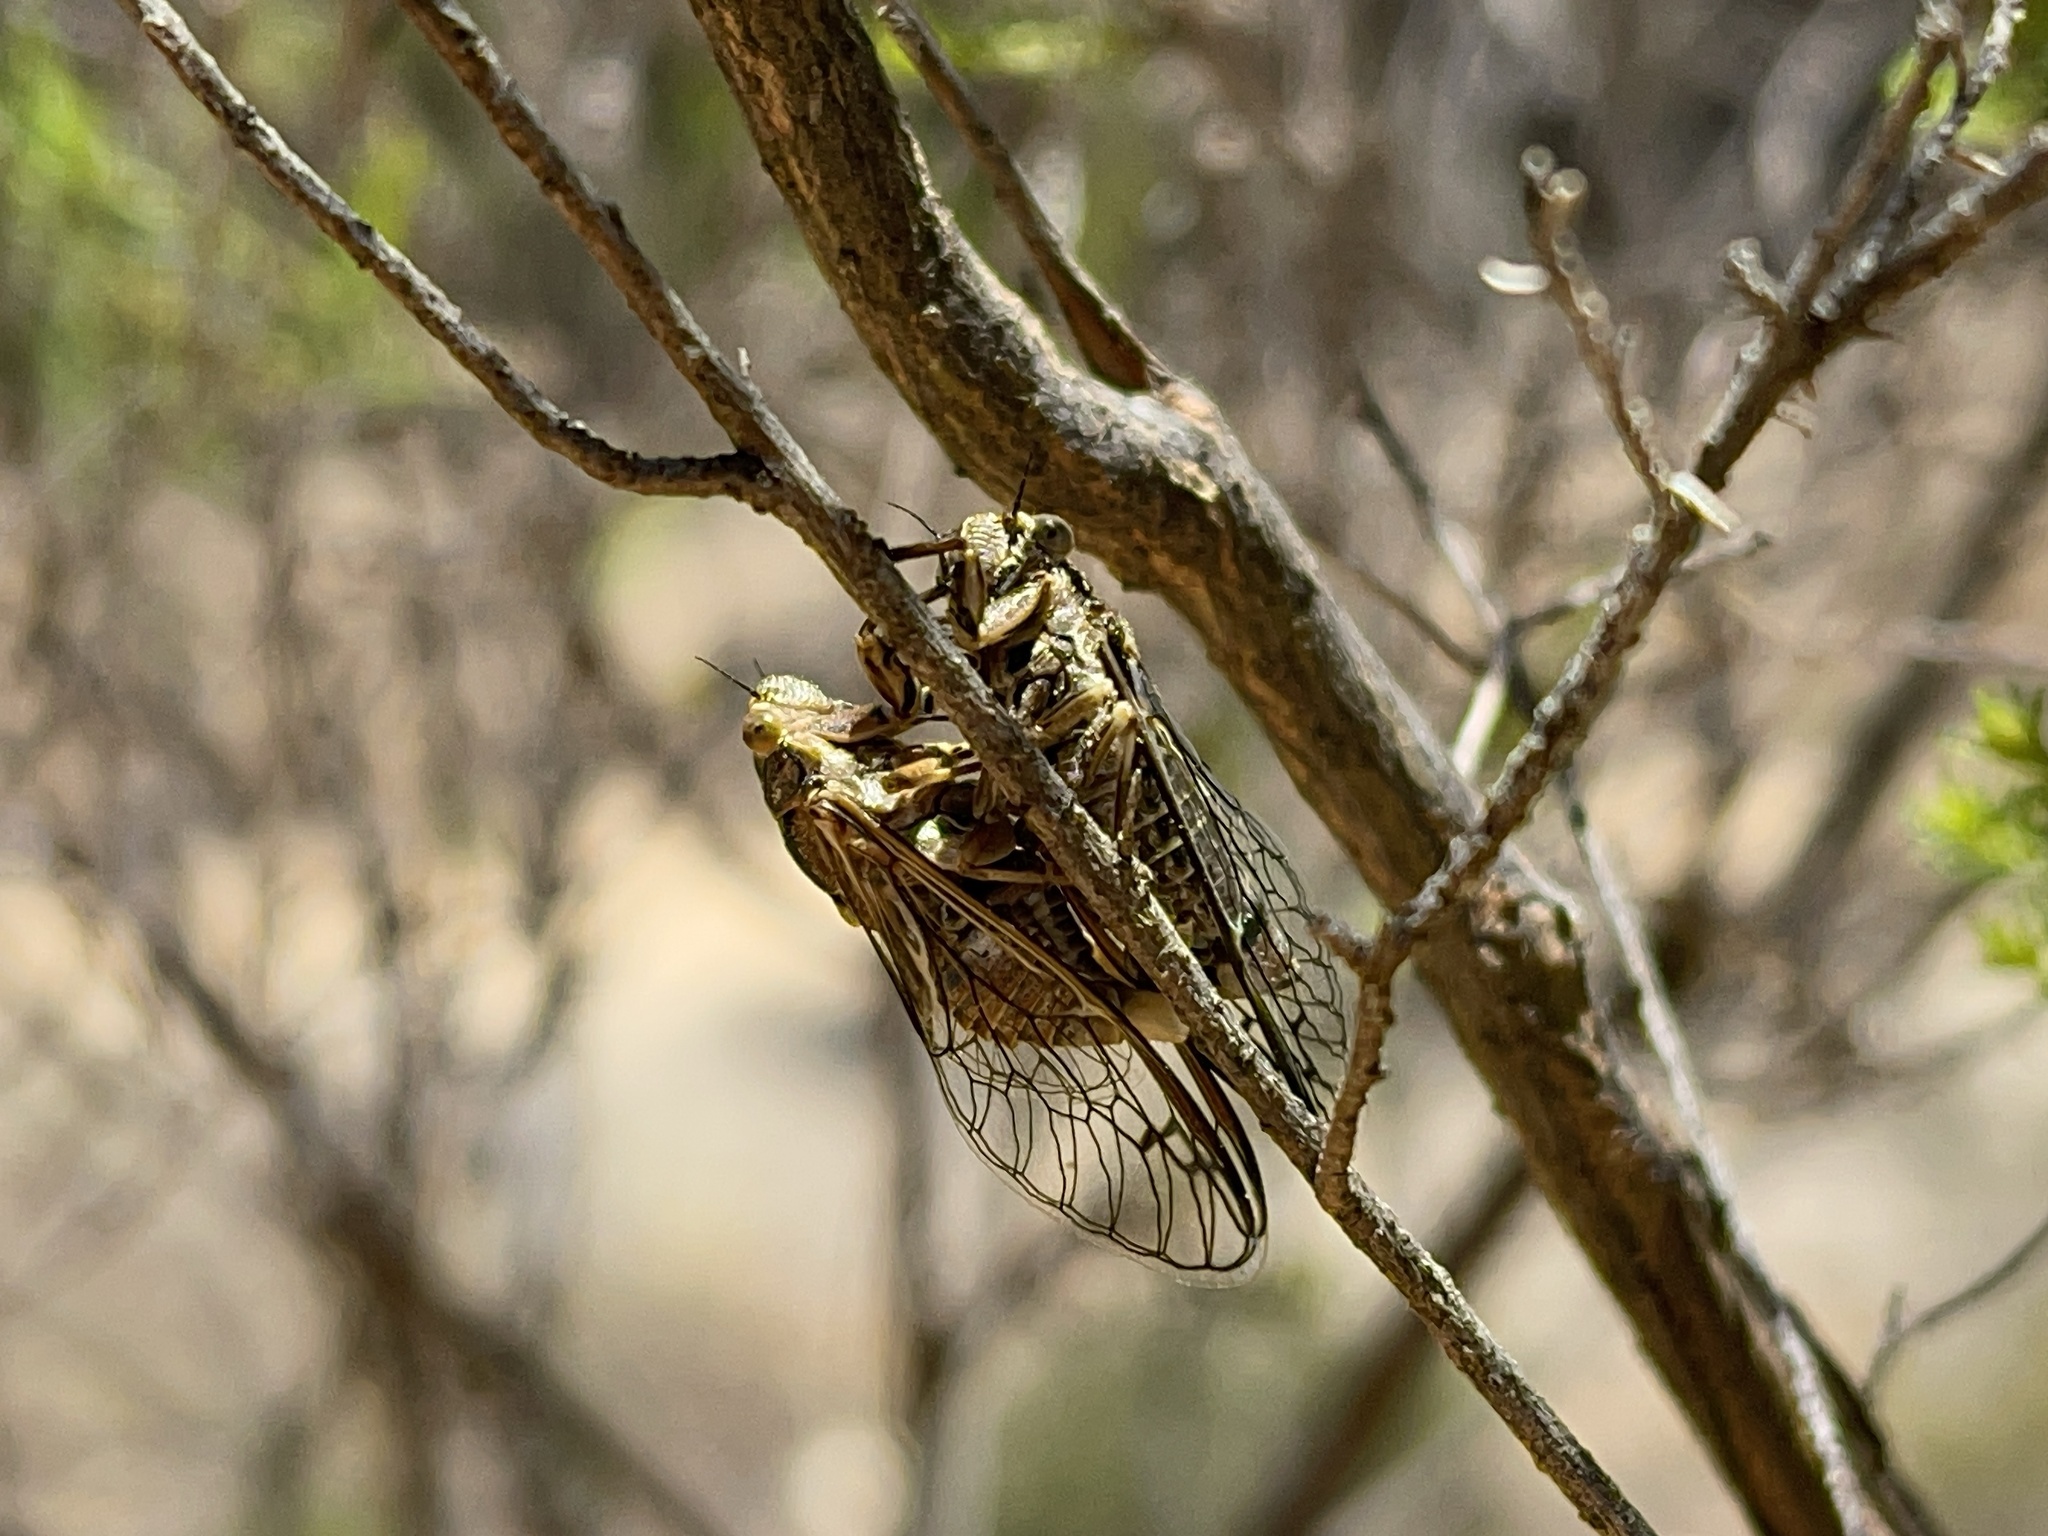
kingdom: Animalia
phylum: Arthropoda
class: Insecta
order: Hemiptera
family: Cicadidae
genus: Chelapsalta
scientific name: Chelapsalta puer
